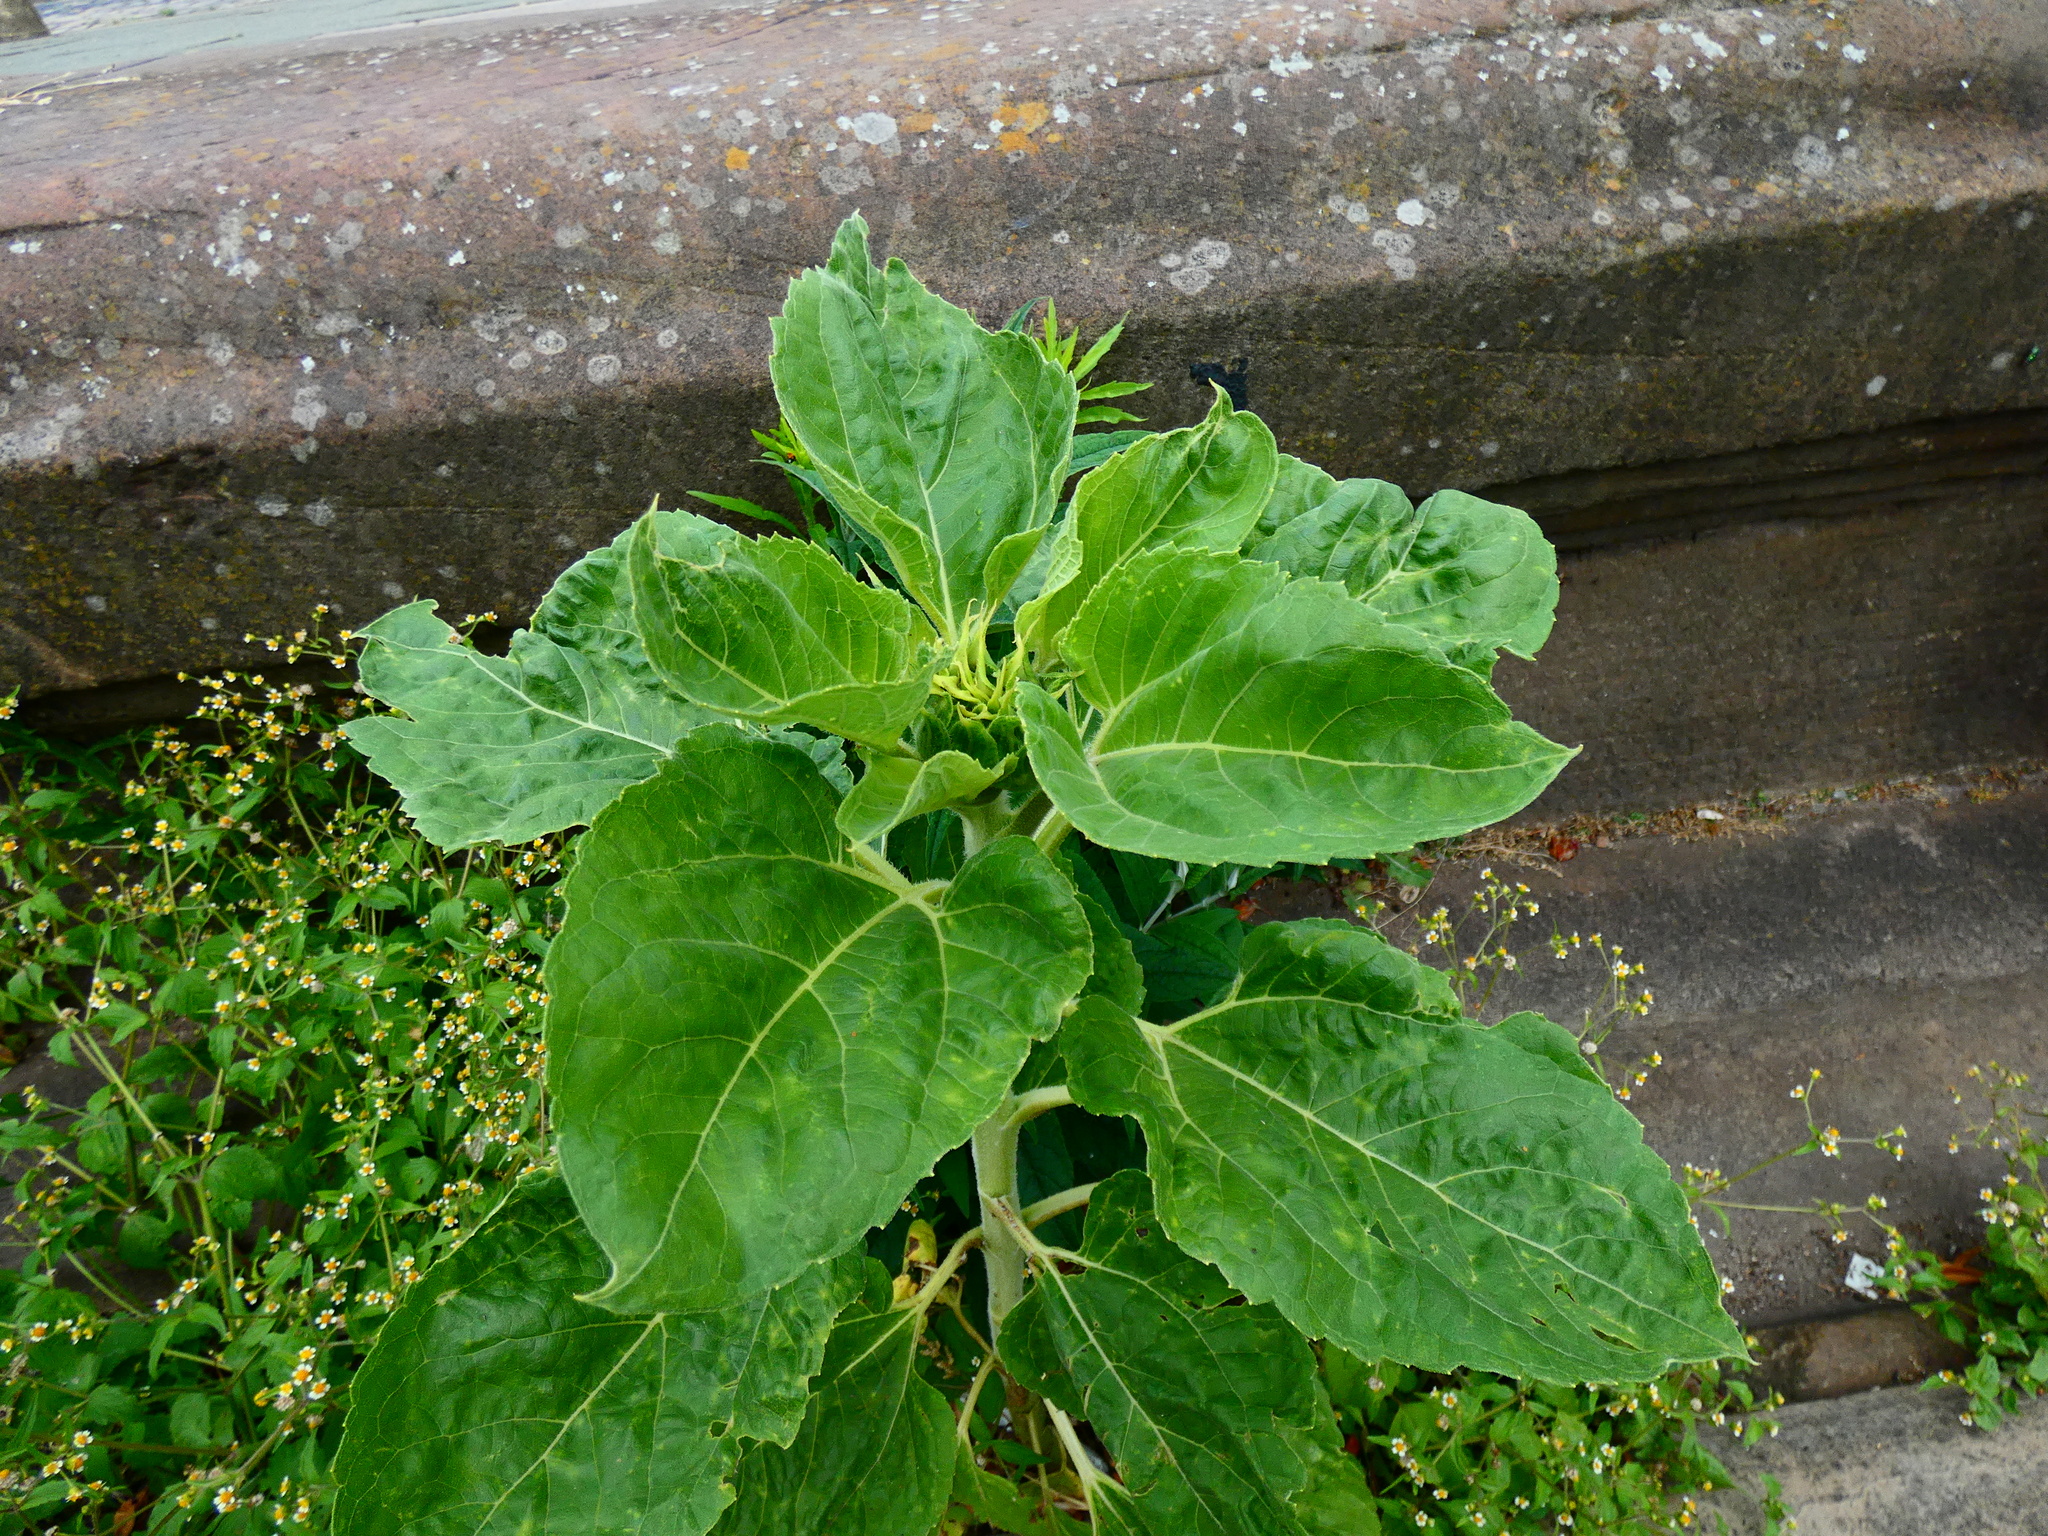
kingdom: Plantae
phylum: Tracheophyta
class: Magnoliopsida
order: Asterales
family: Asteraceae
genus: Helianthus
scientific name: Helianthus annuus
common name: Sunflower
